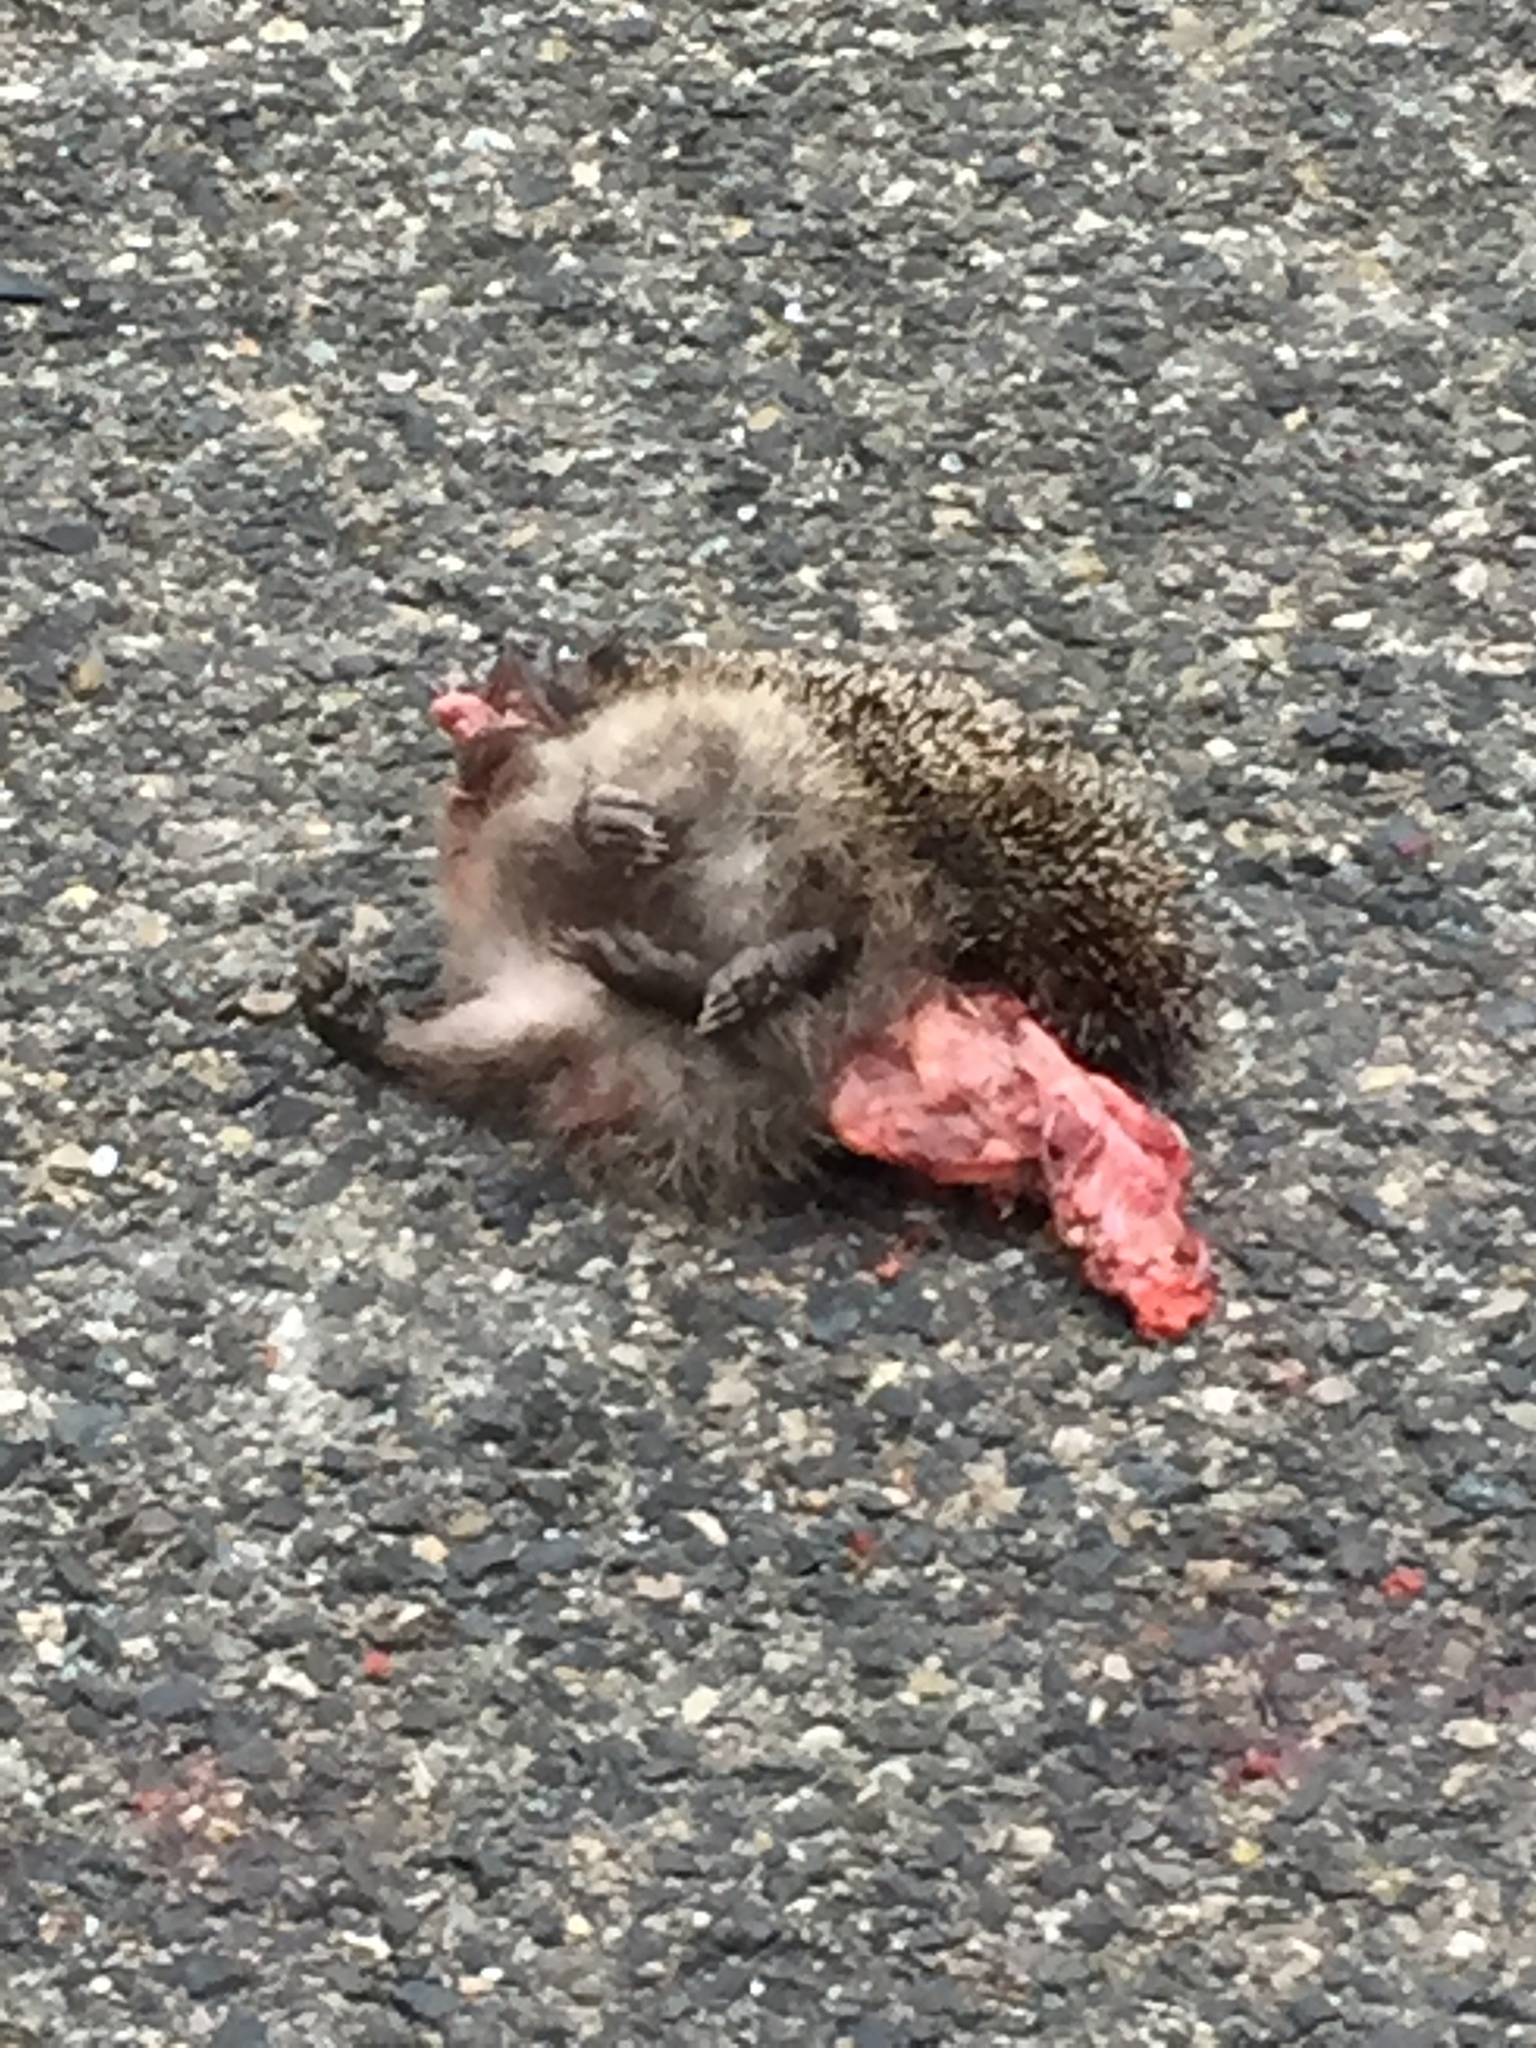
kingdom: Animalia
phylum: Chordata
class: Mammalia
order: Erinaceomorpha
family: Erinaceidae
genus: Erinaceus
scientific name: Erinaceus europaeus
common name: West european hedgehog
